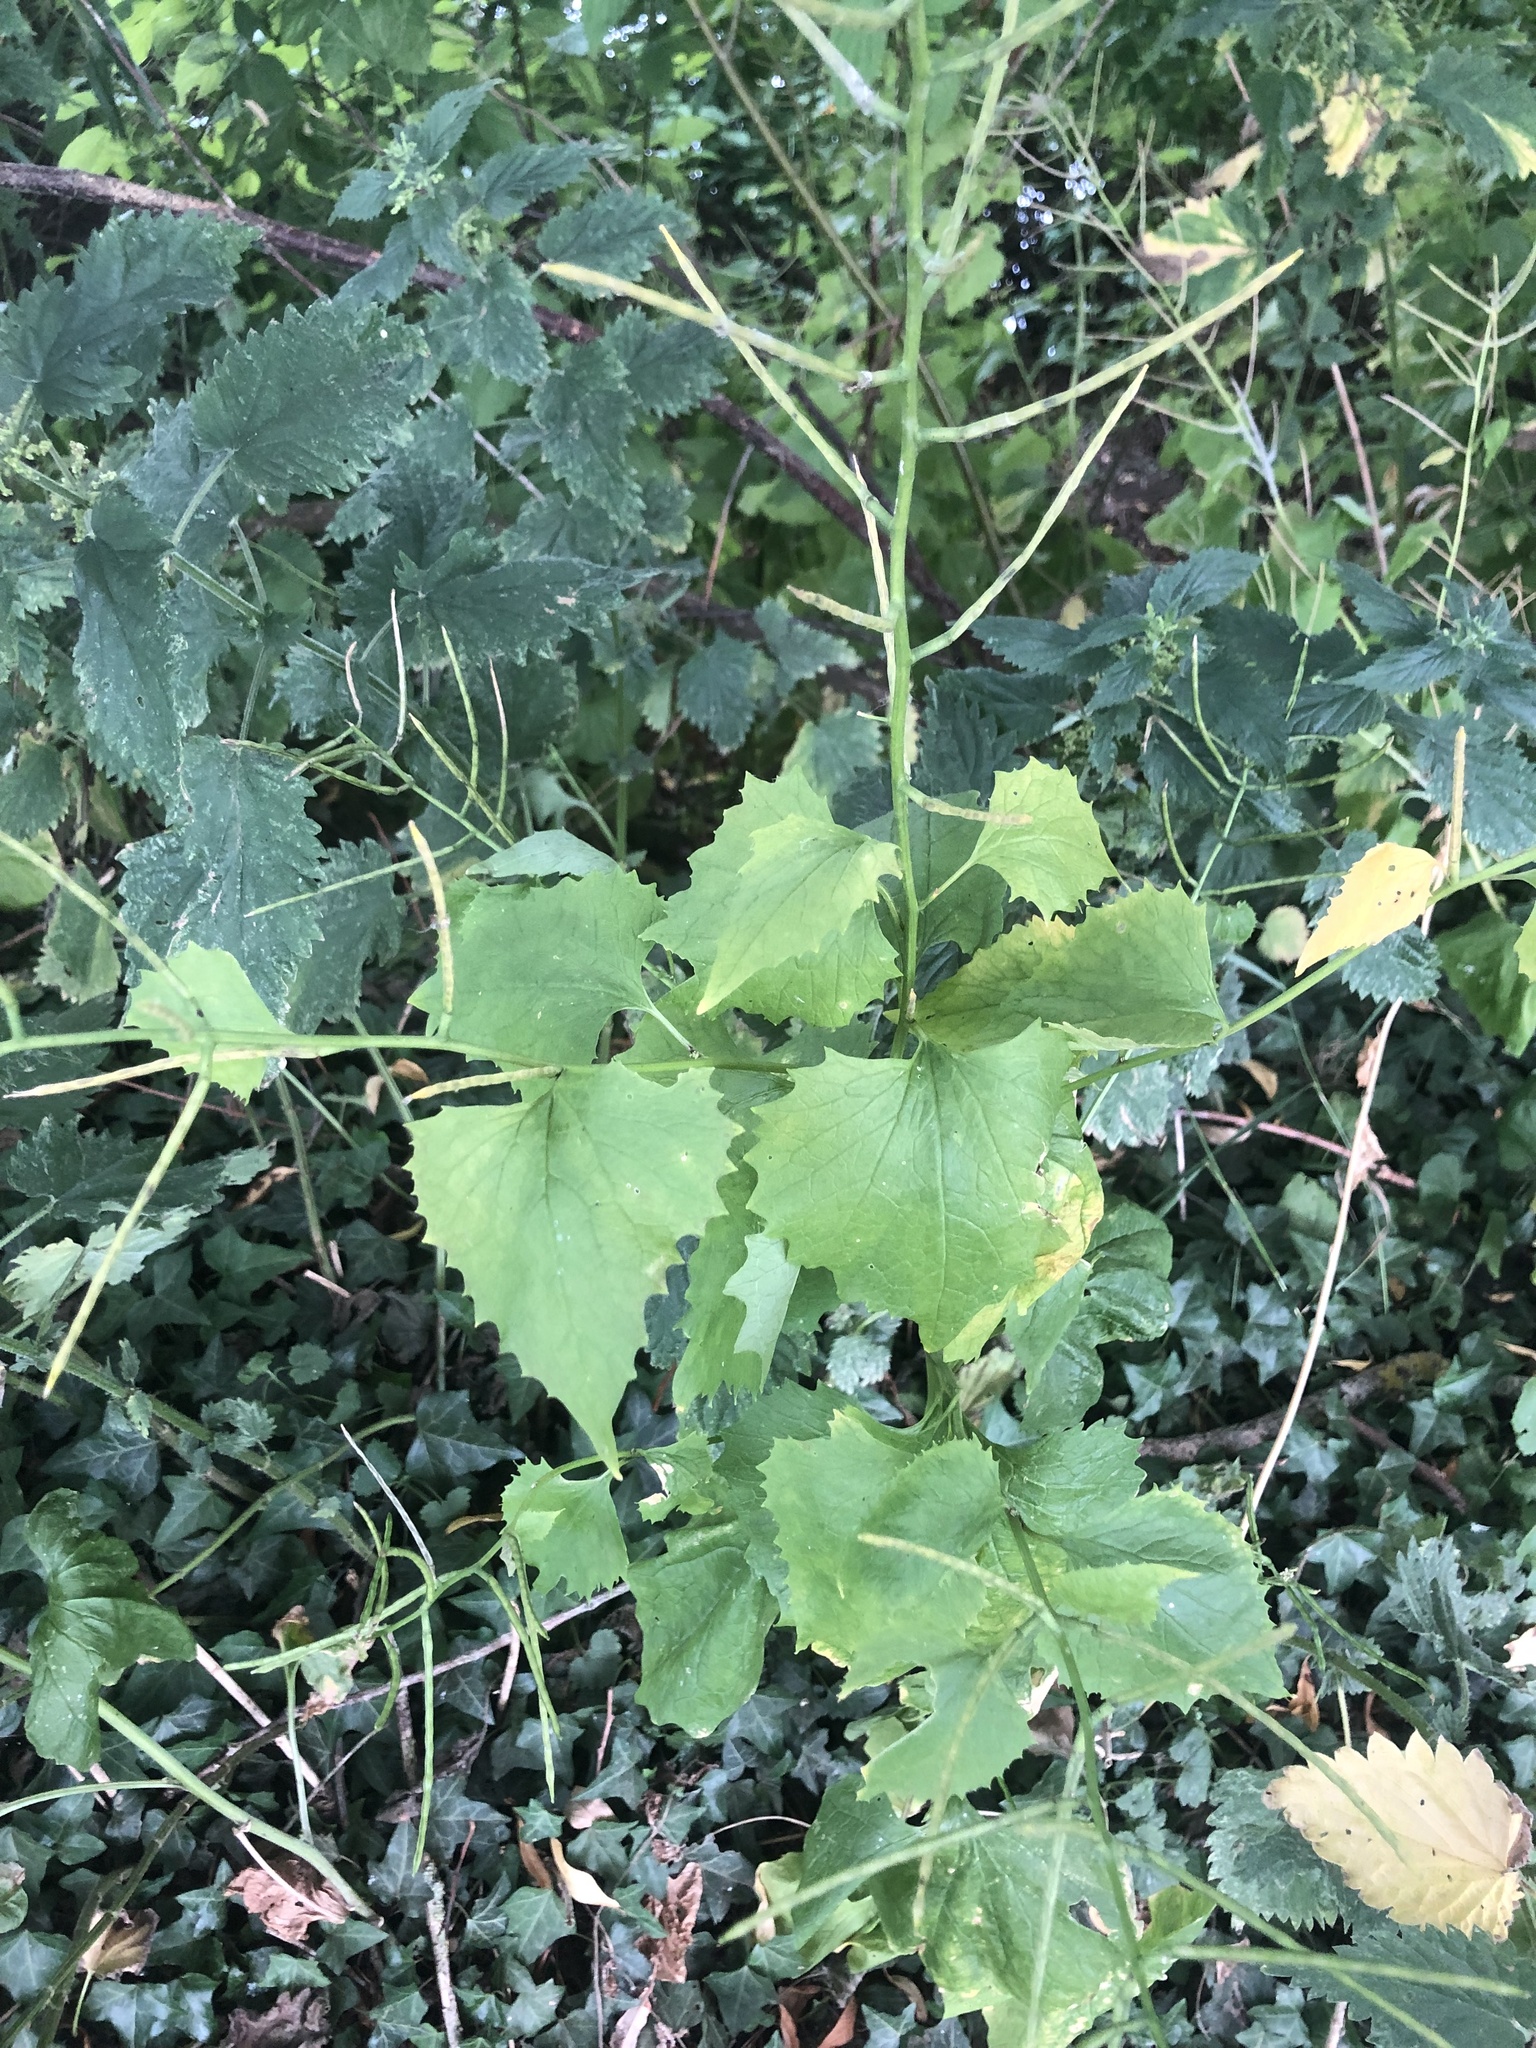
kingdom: Plantae
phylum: Tracheophyta
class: Magnoliopsida
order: Brassicales
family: Brassicaceae
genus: Alliaria
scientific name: Alliaria petiolata
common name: Garlic mustard
